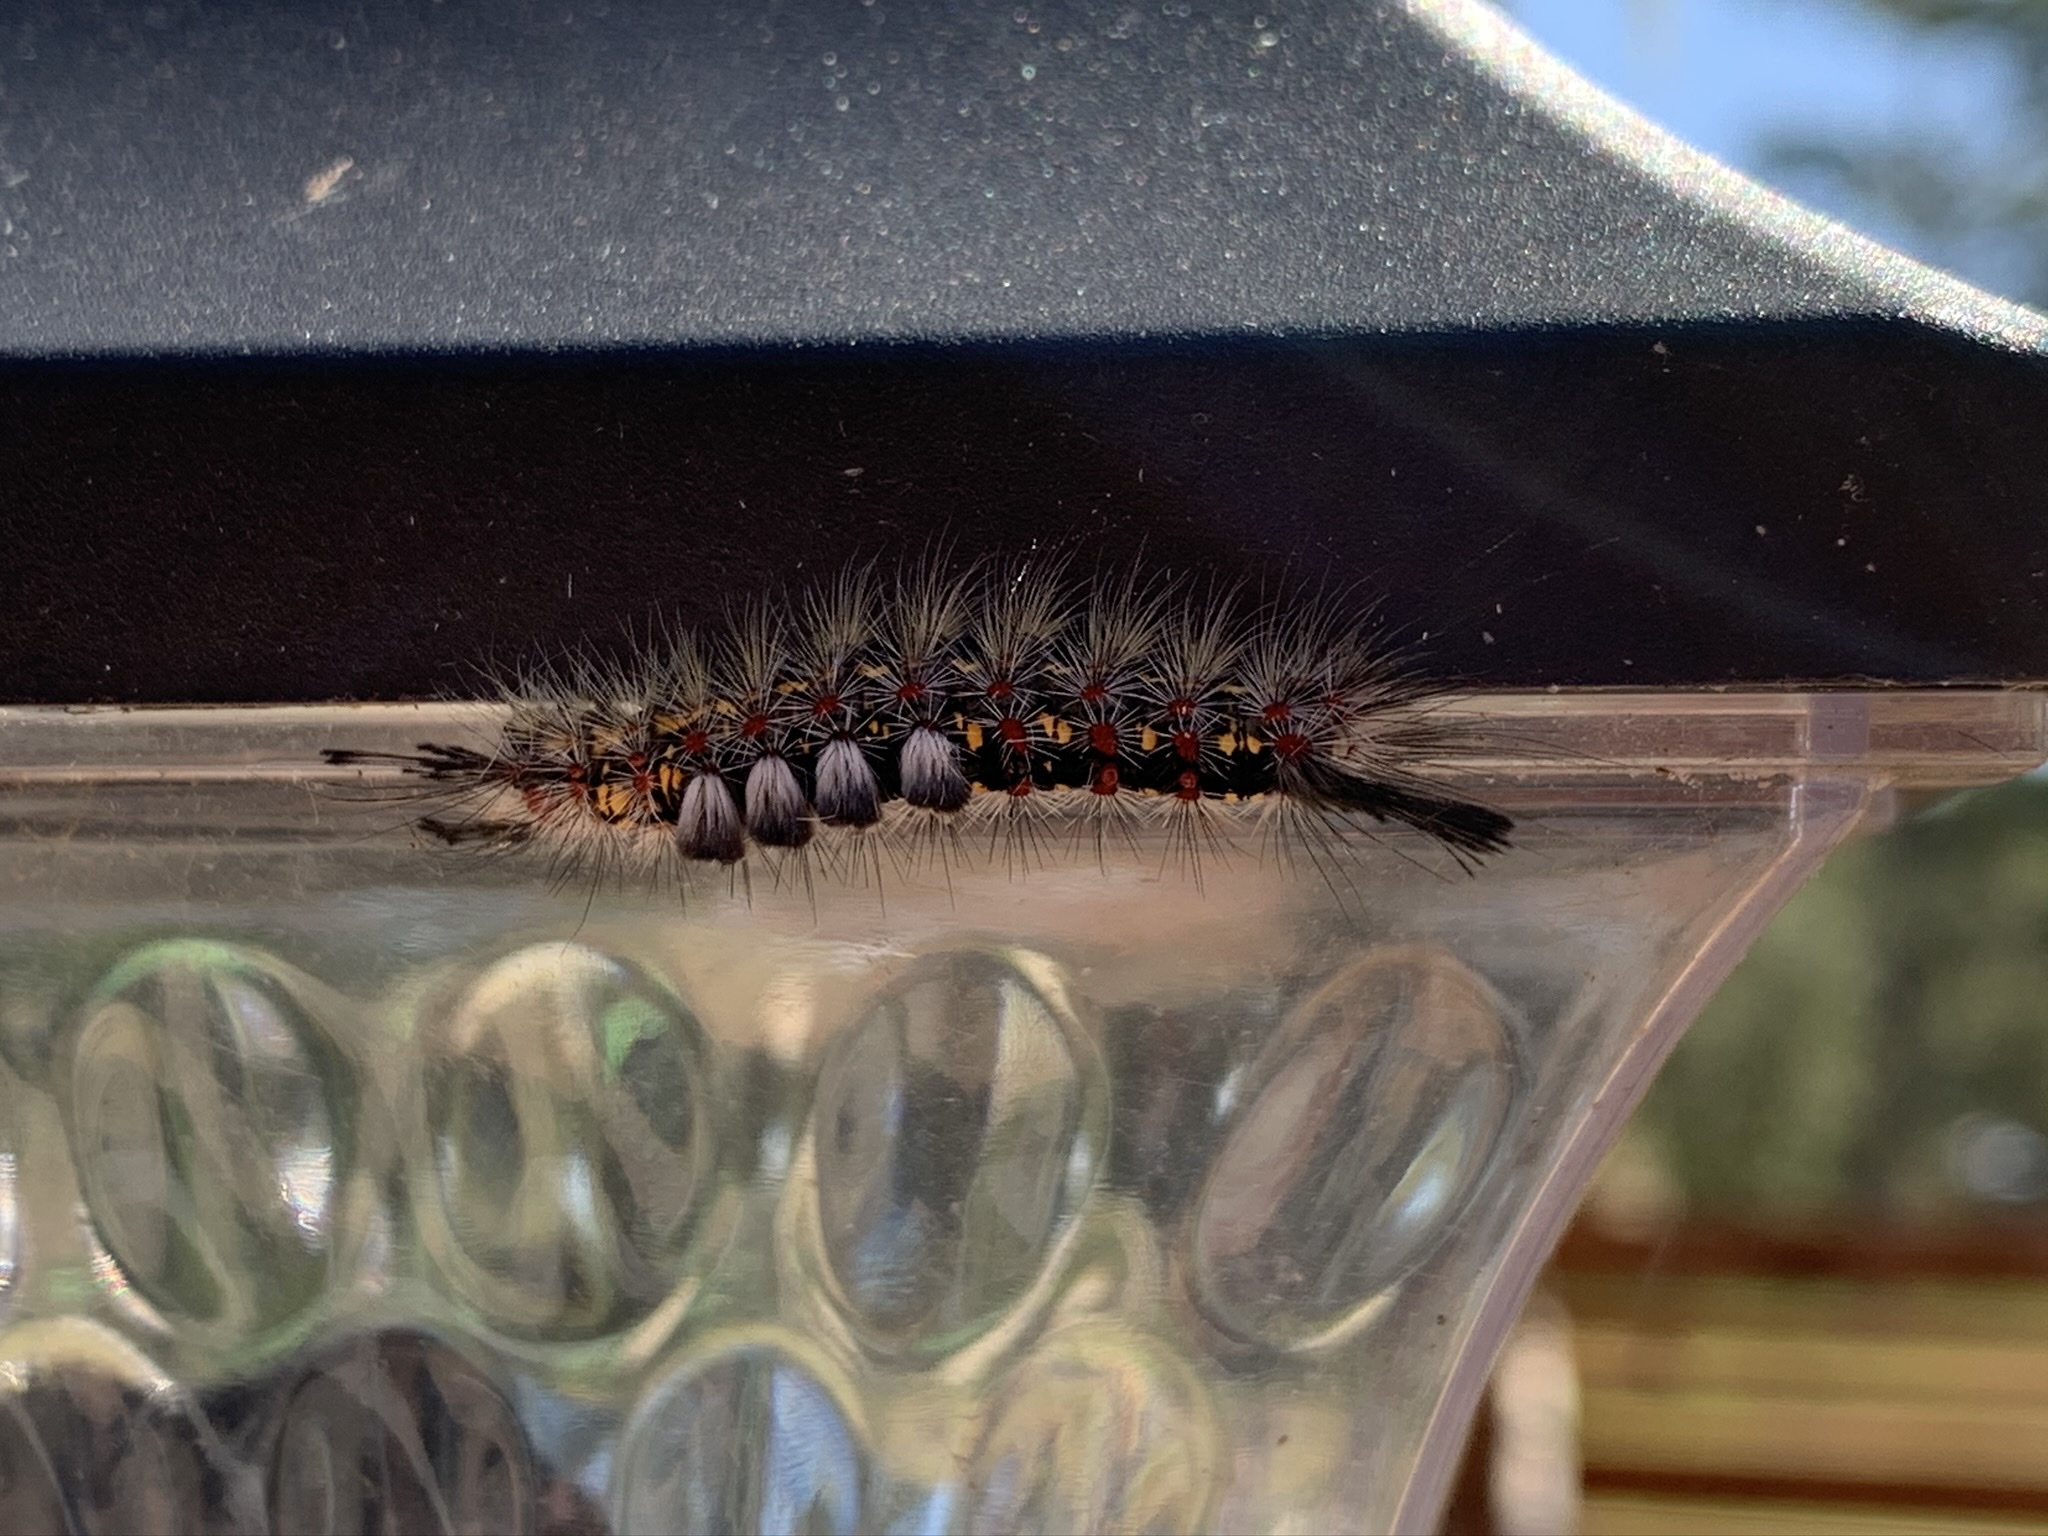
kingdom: Animalia
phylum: Arthropoda
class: Insecta
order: Lepidoptera
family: Erebidae
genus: Orgyia
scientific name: Orgyia vetusta
